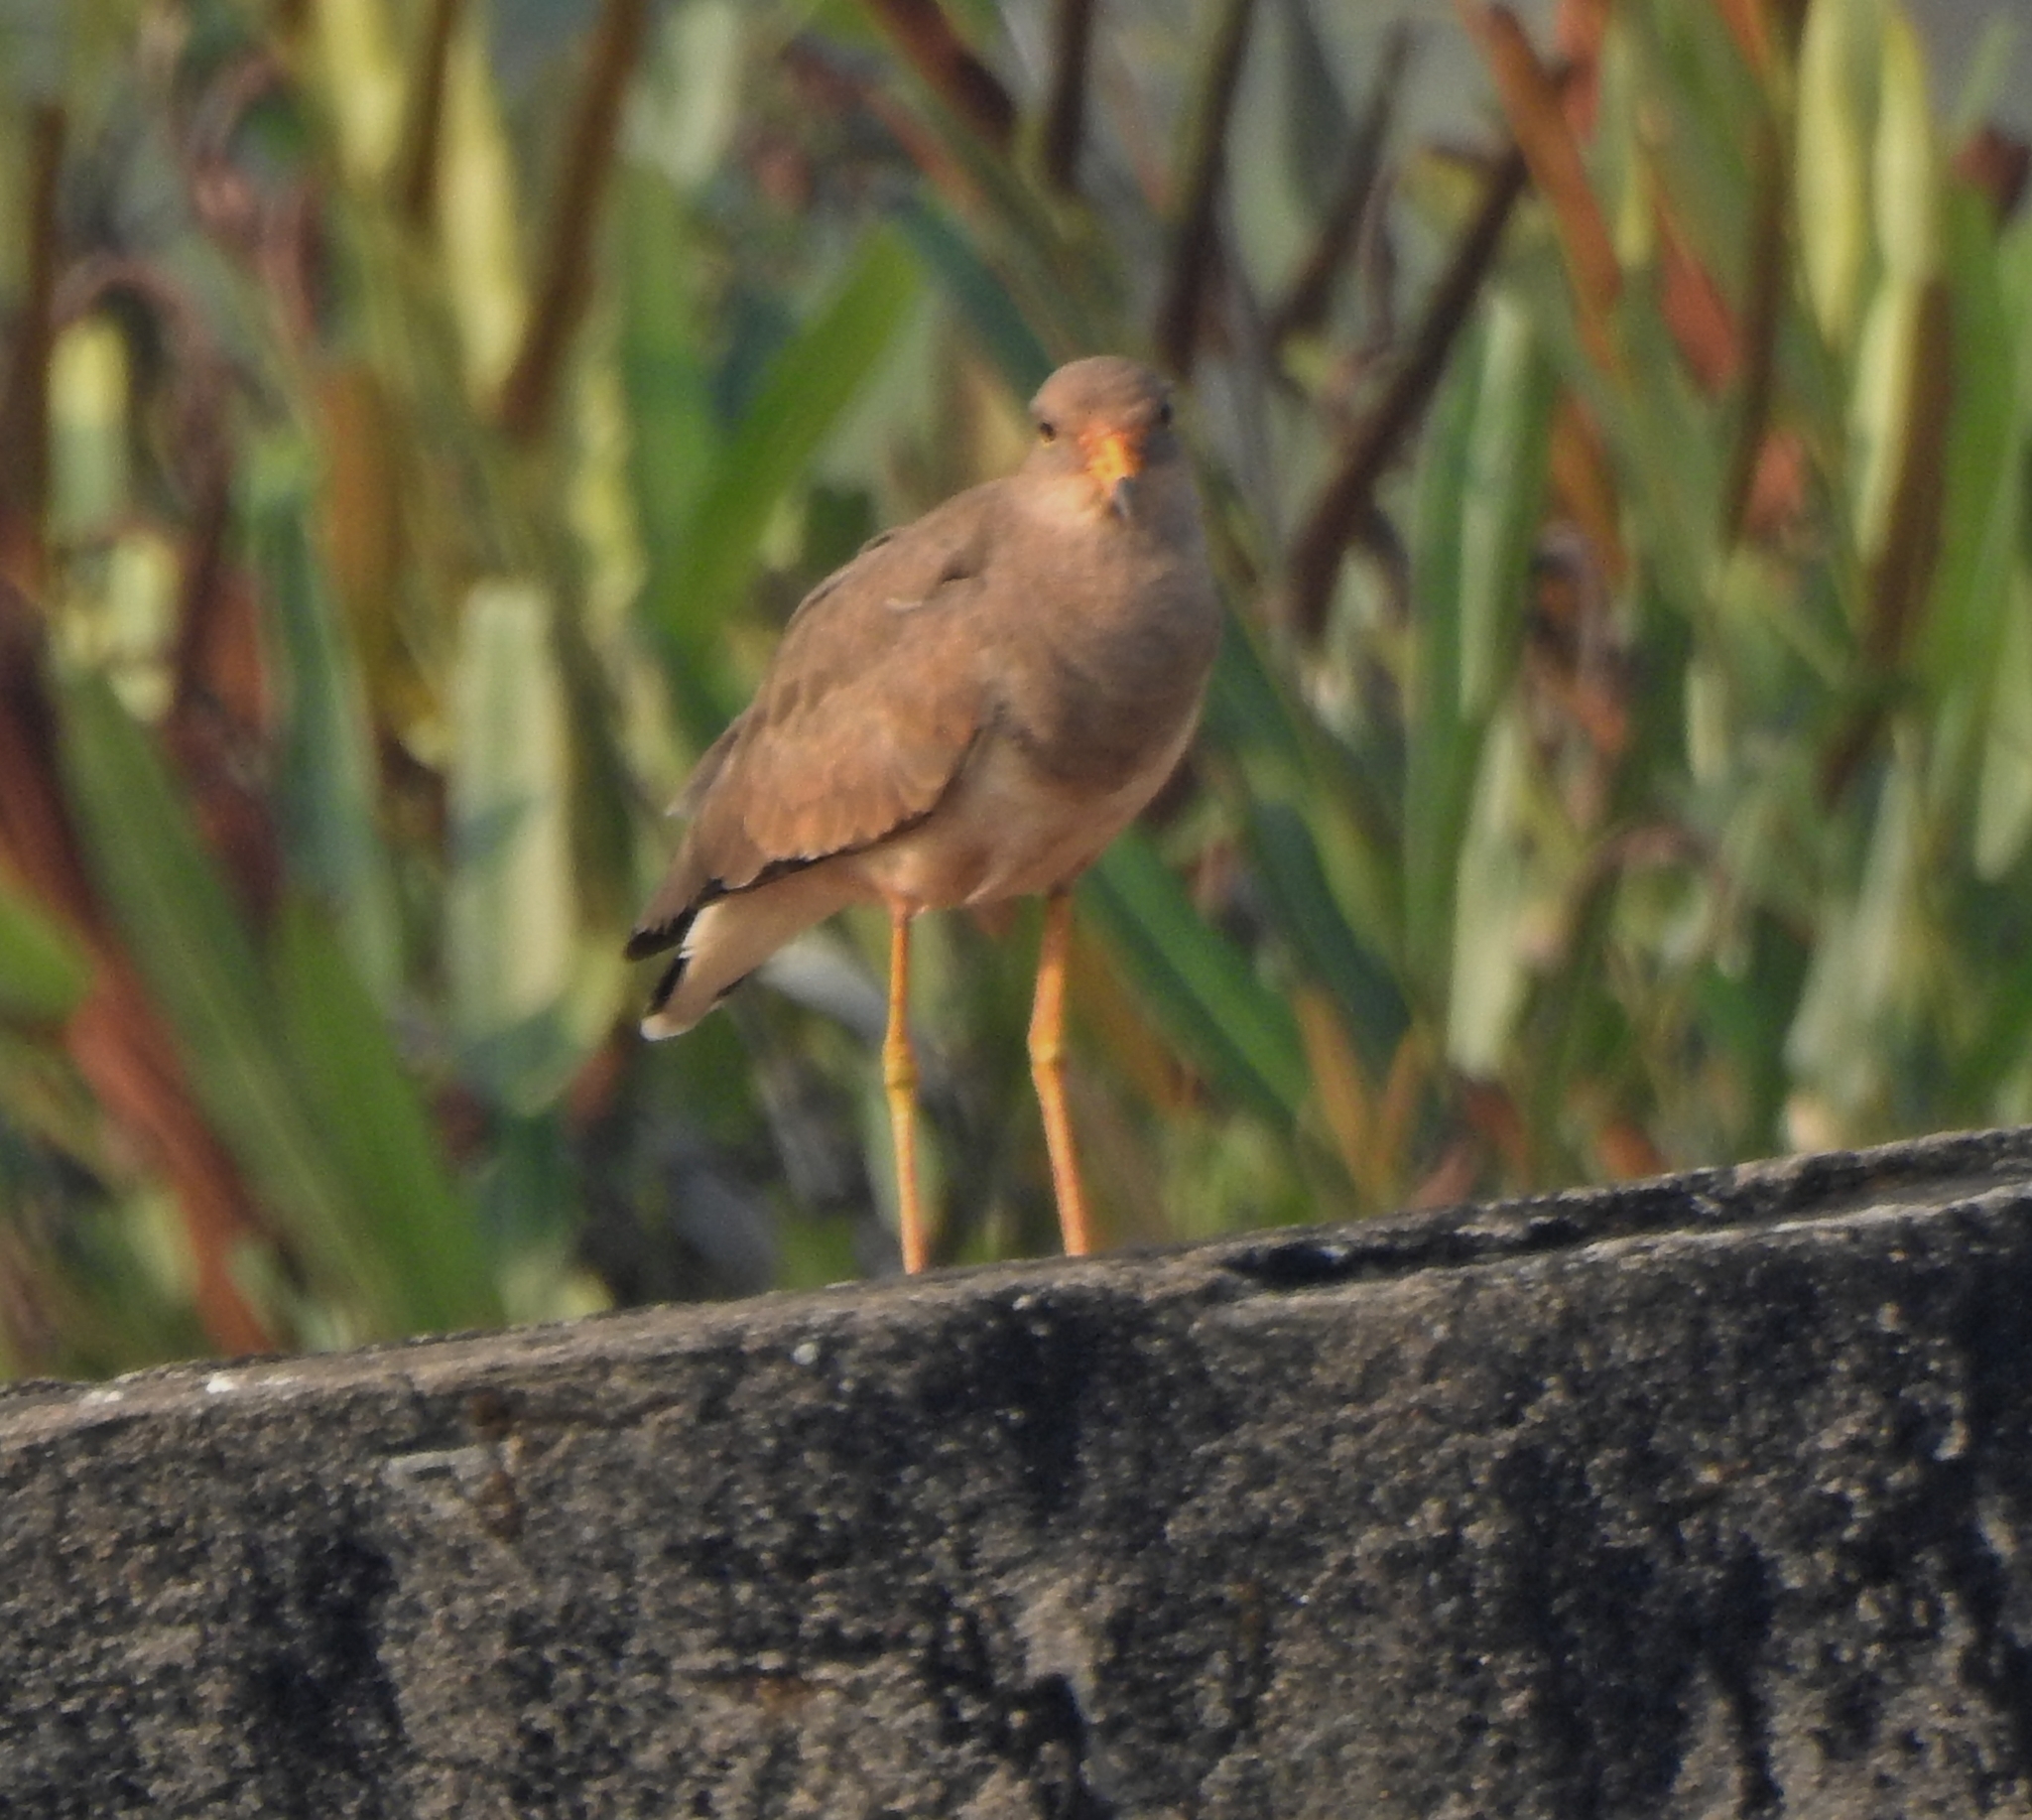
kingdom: Animalia
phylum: Chordata
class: Aves
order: Charadriiformes
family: Charadriidae
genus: Vanellus
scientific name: Vanellus cinereus
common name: Grey-headed lapwing
